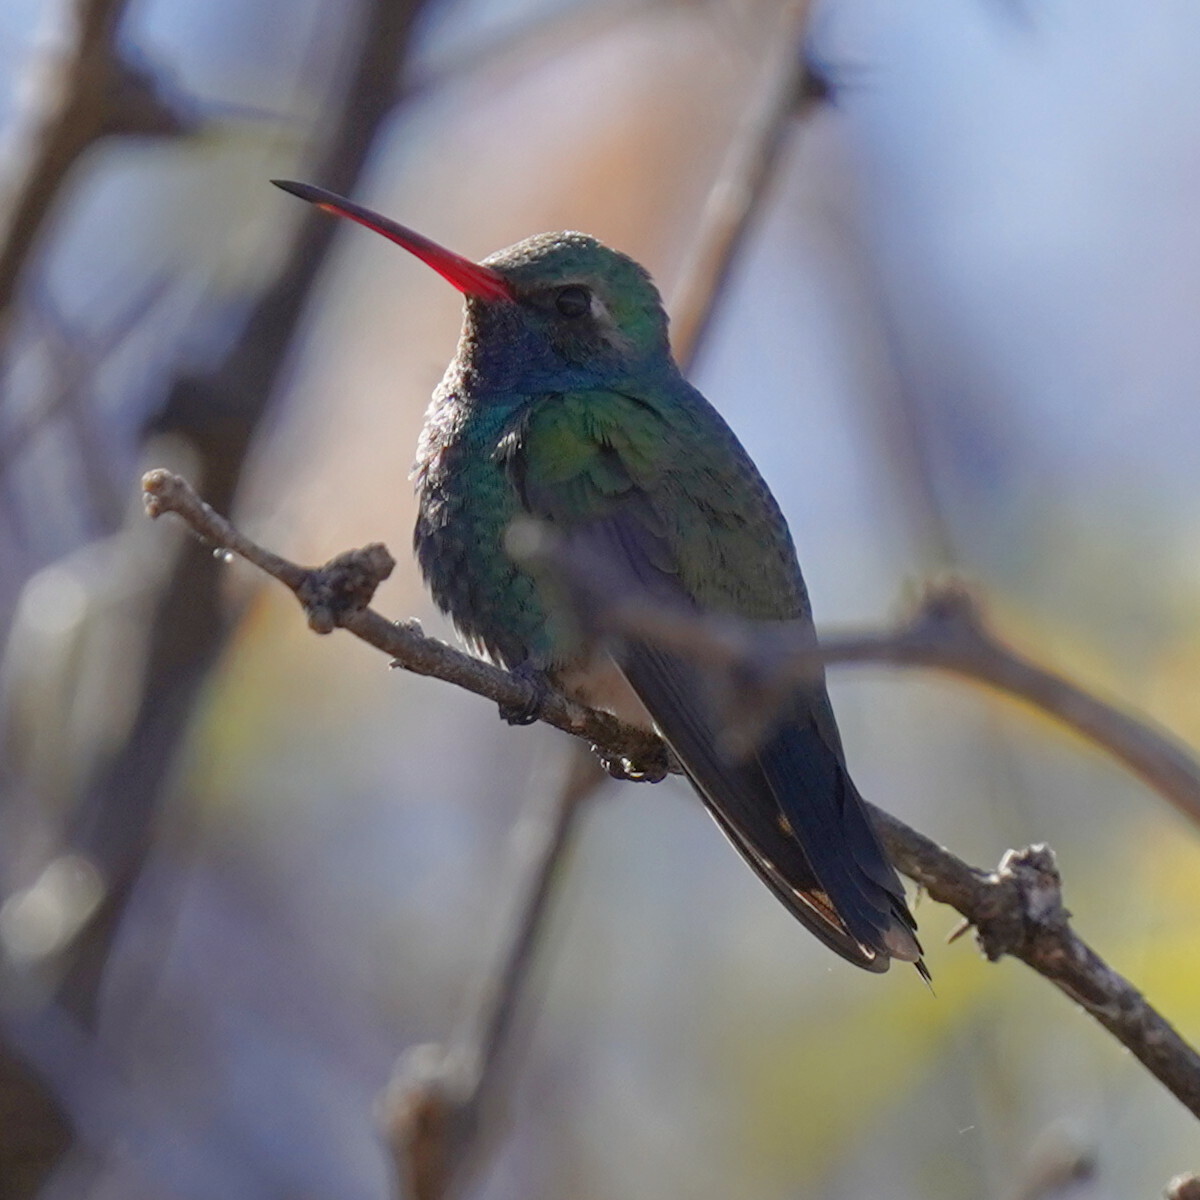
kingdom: Animalia
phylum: Chordata
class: Aves
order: Apodiformes
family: Trochilidae
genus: Cynanthus
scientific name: Cynanthus latirostris
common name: Broad-billed hummingbird
